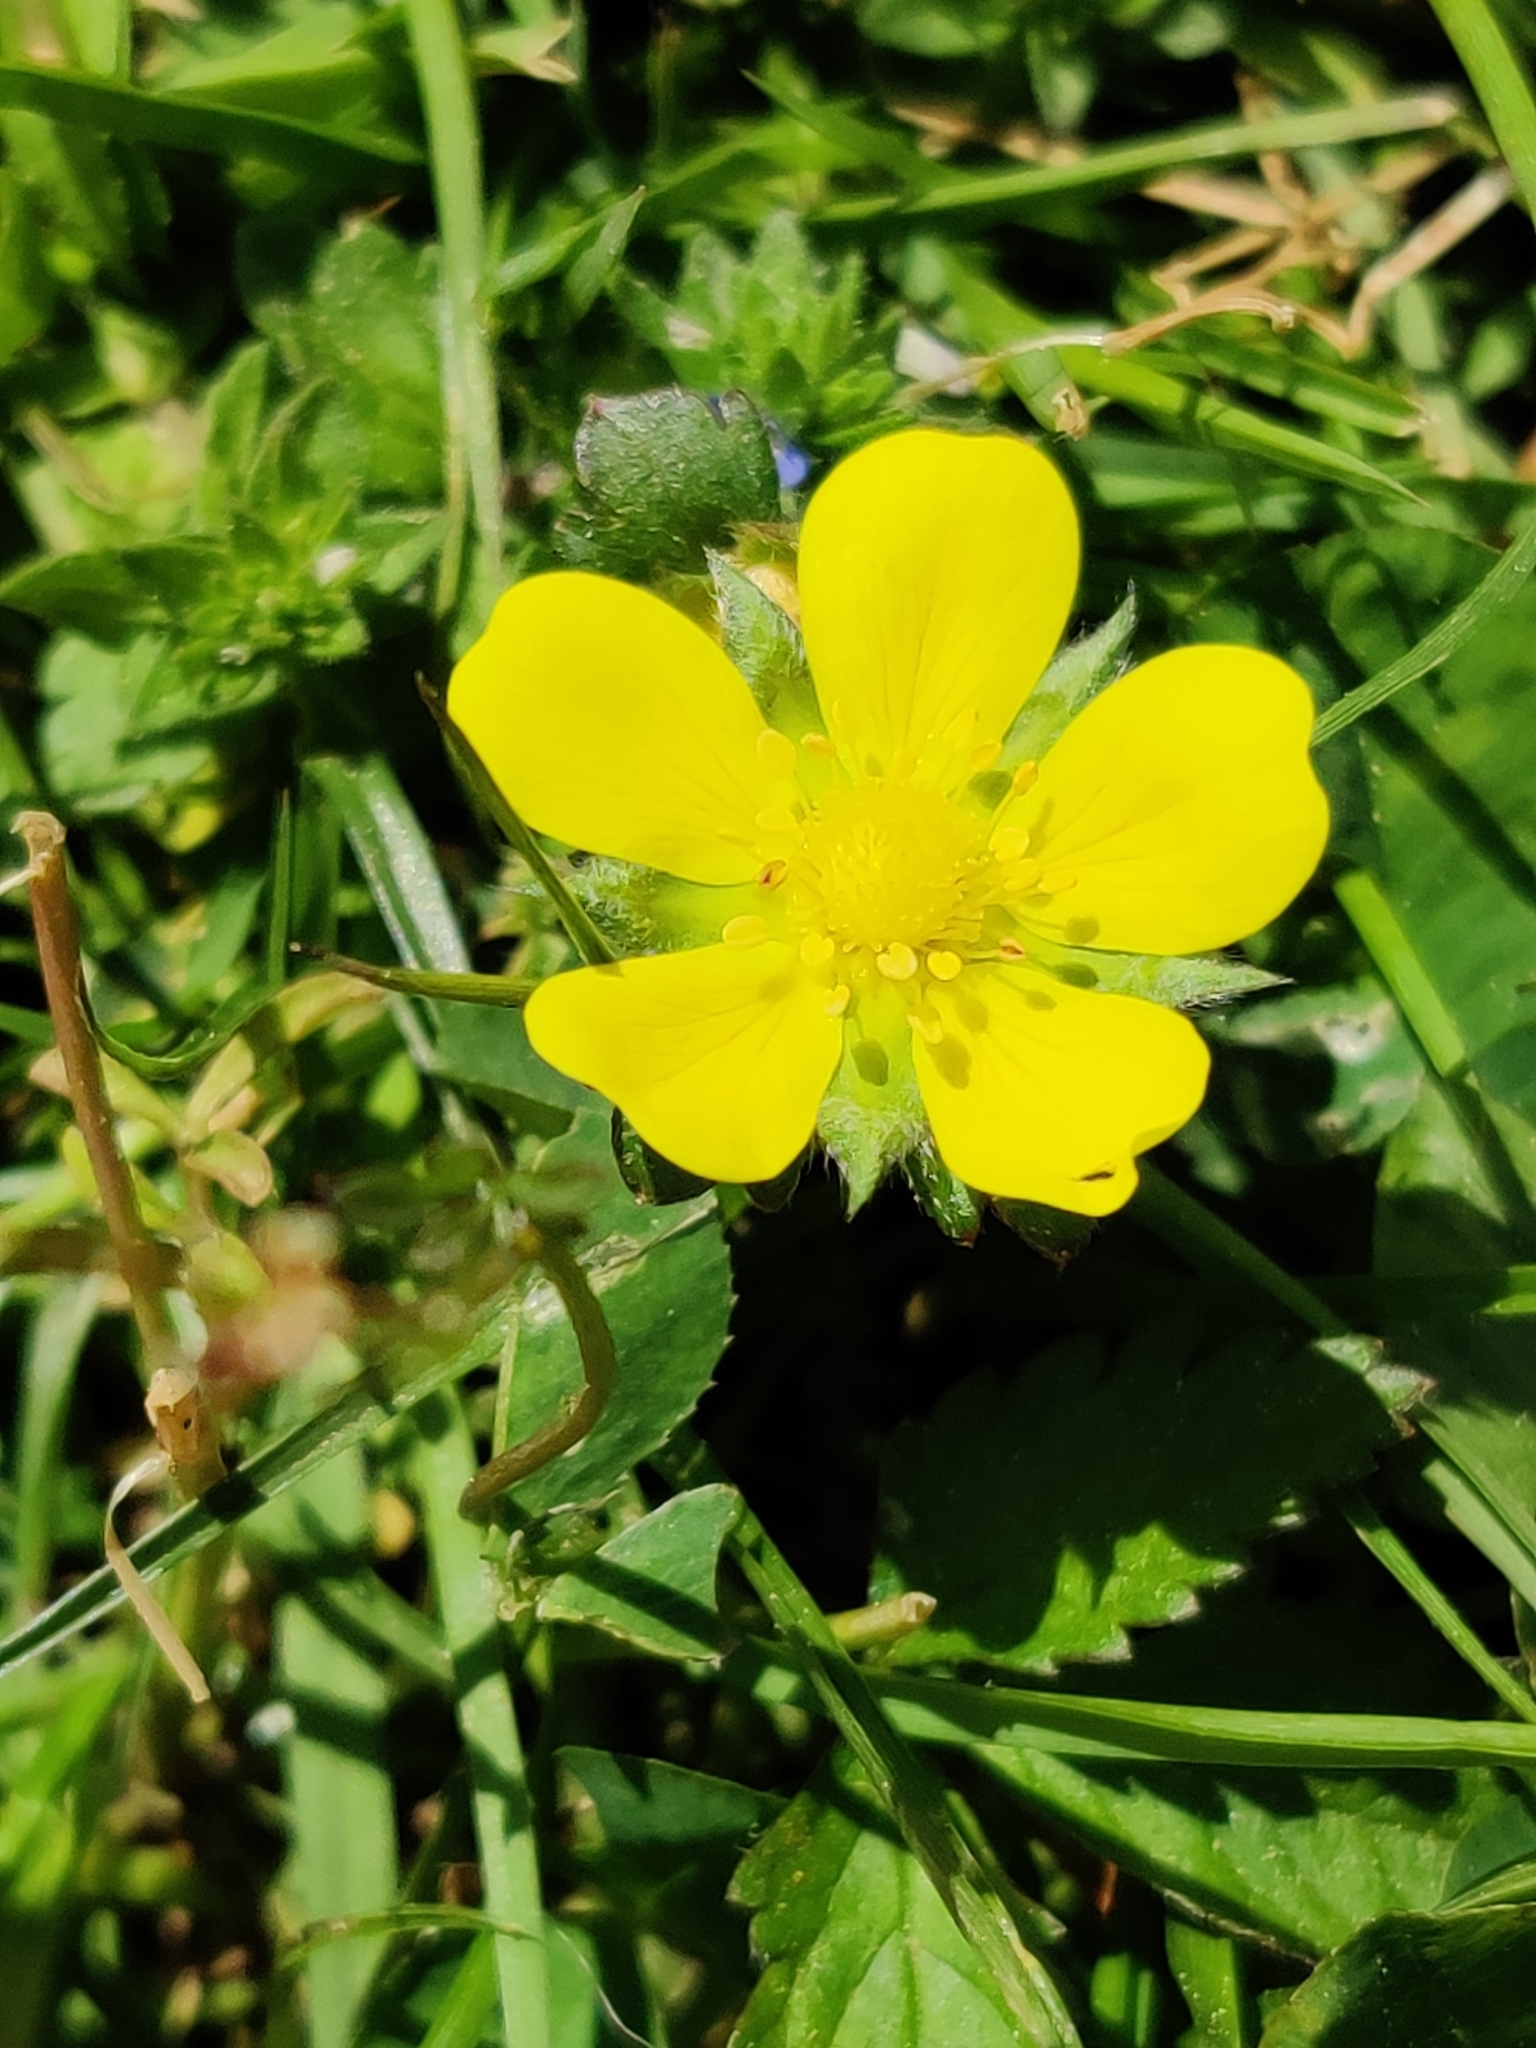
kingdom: Plantae
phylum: Tracheophyta
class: Magnoliopsida
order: Rosales
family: Rosaceae
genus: Potentilla
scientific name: Potentilla indica
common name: Yellow-flowered strawberry
